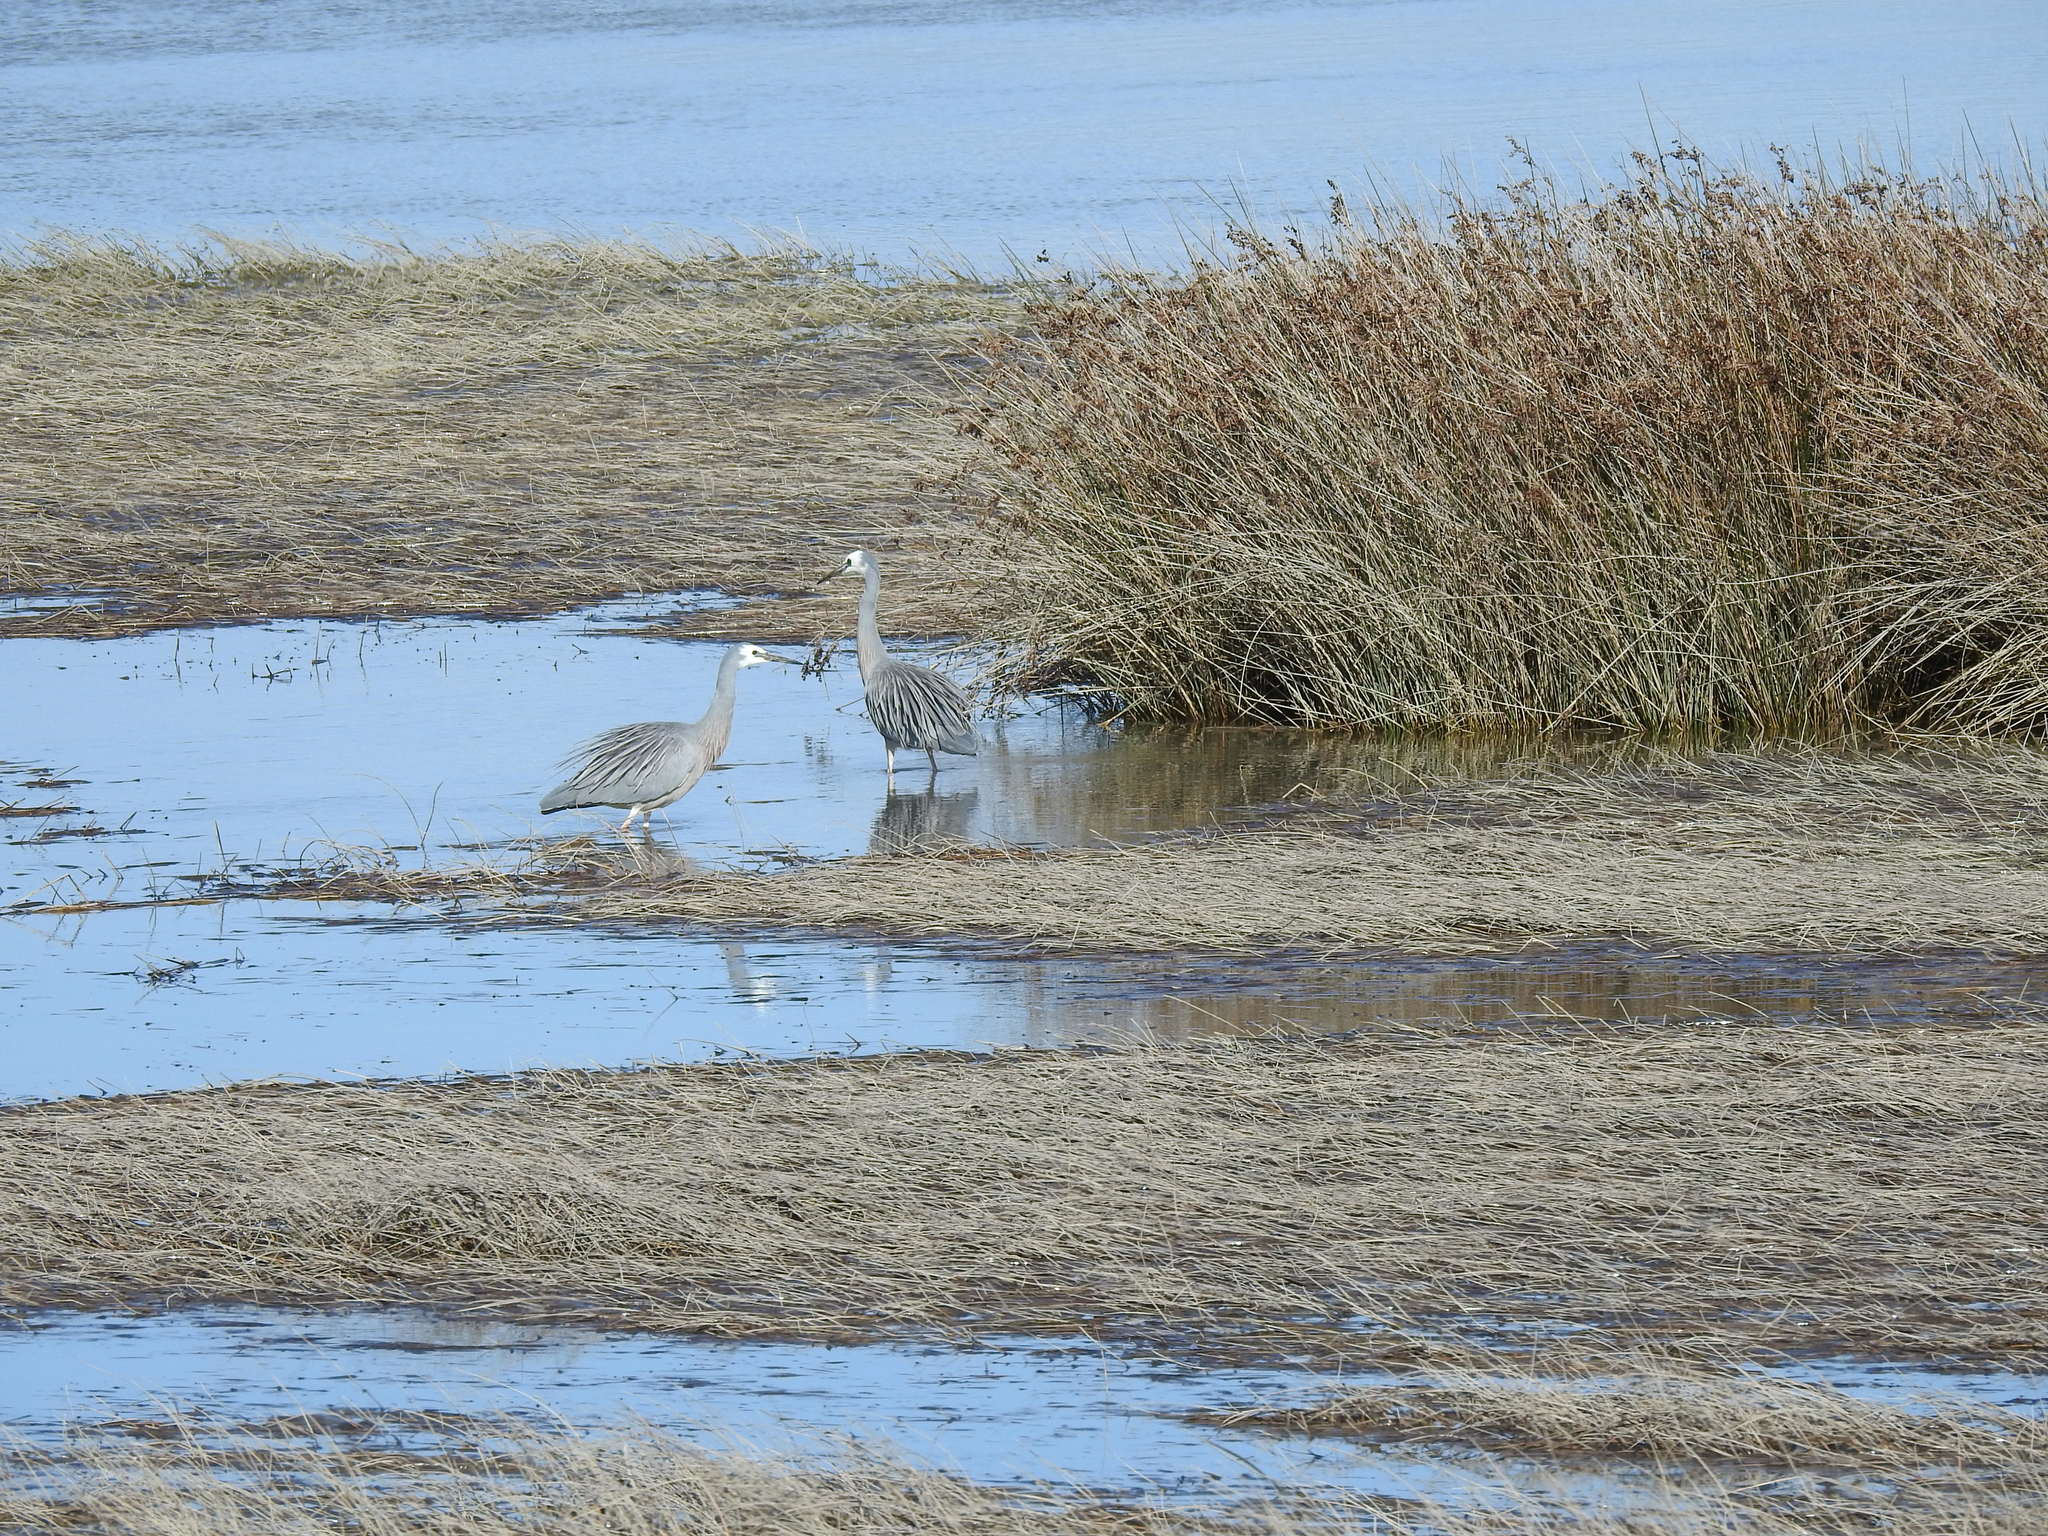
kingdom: Animalia
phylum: Chordata
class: Aves
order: Pelecaniformes
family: Ardeidae
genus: Egretta
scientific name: Egretta novaehollandiae
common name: White-faced heron
